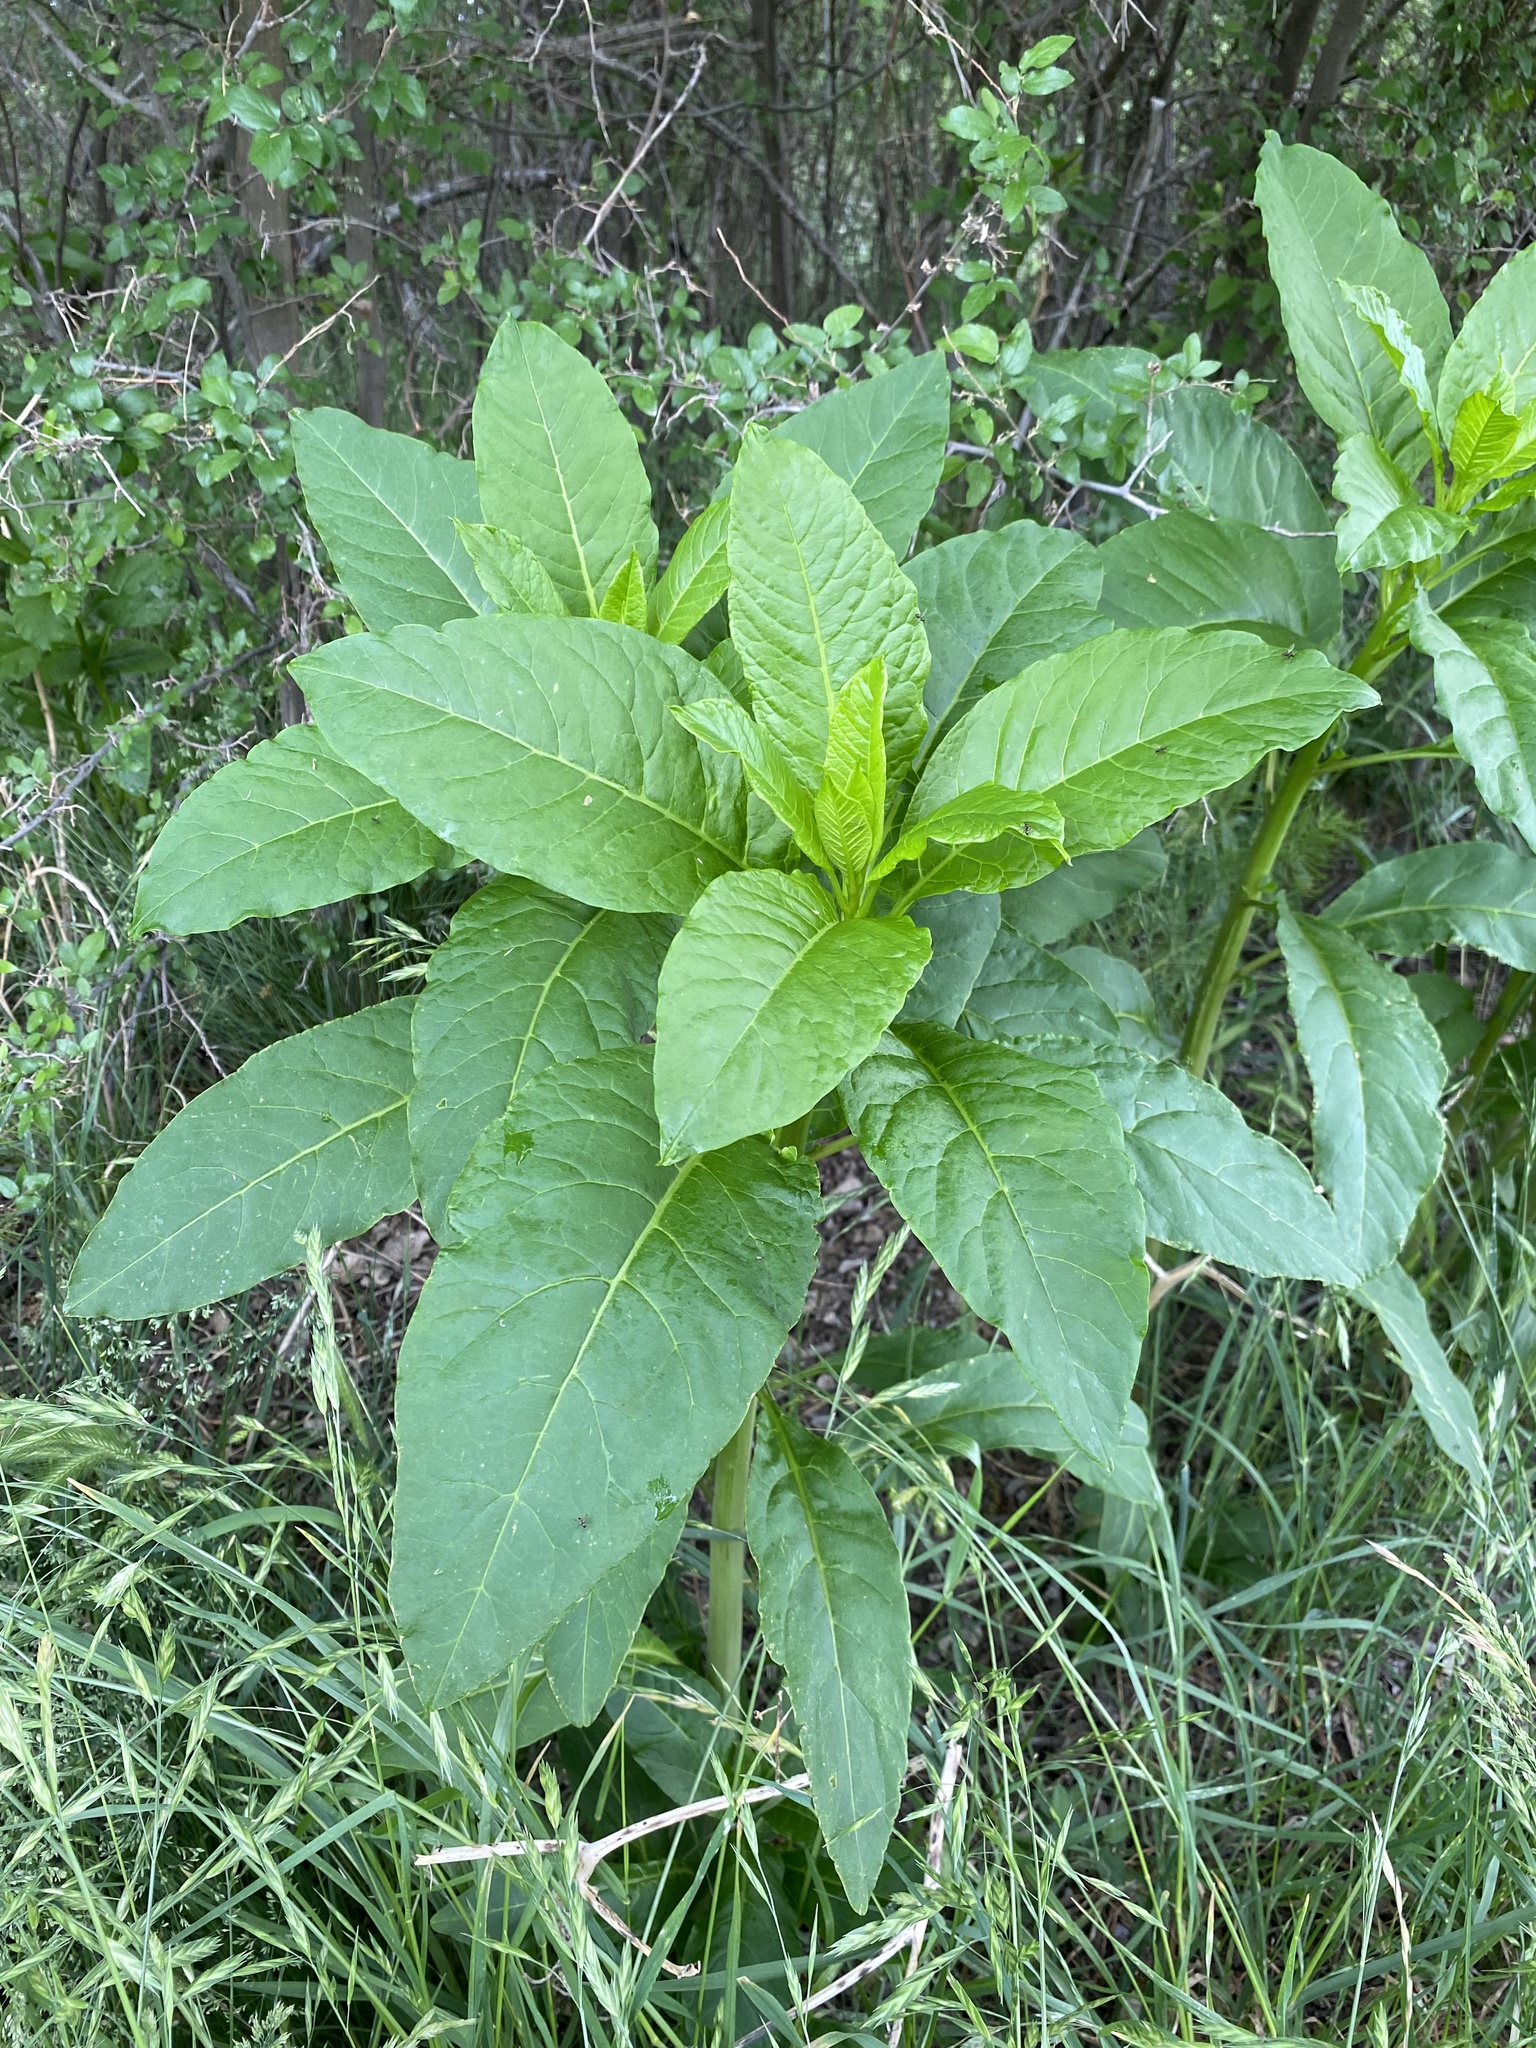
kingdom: Plantae
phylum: Tracheophyta
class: Magnoliopsida
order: Caryophyllales
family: Phytolaccaceae
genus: Phytolacca
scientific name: Phytolacca americana
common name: American pokeweed
